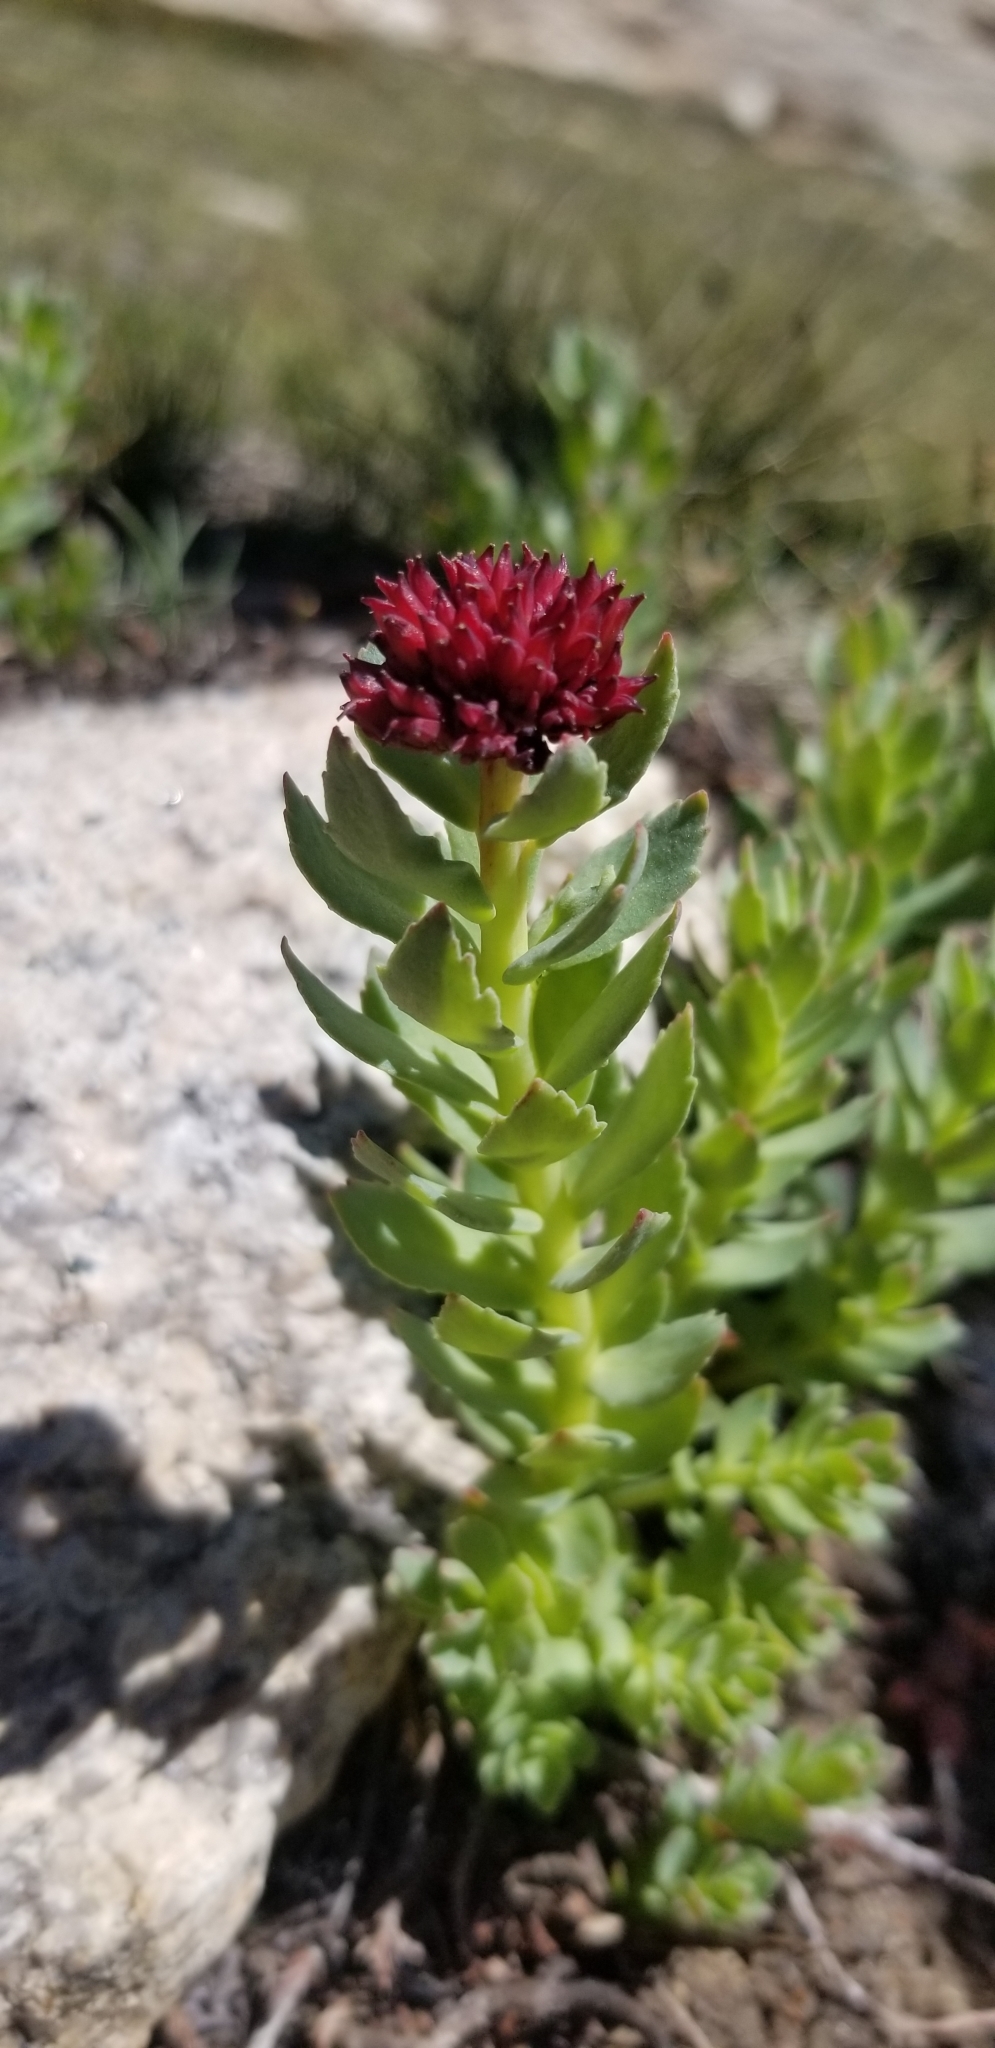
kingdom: Plantae
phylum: Tracheophyta
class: Magnoliopsida
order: Saxifragales
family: Crassulaceae
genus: Rhodiola
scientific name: Rhodiola integrifolia
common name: Western roseroot
